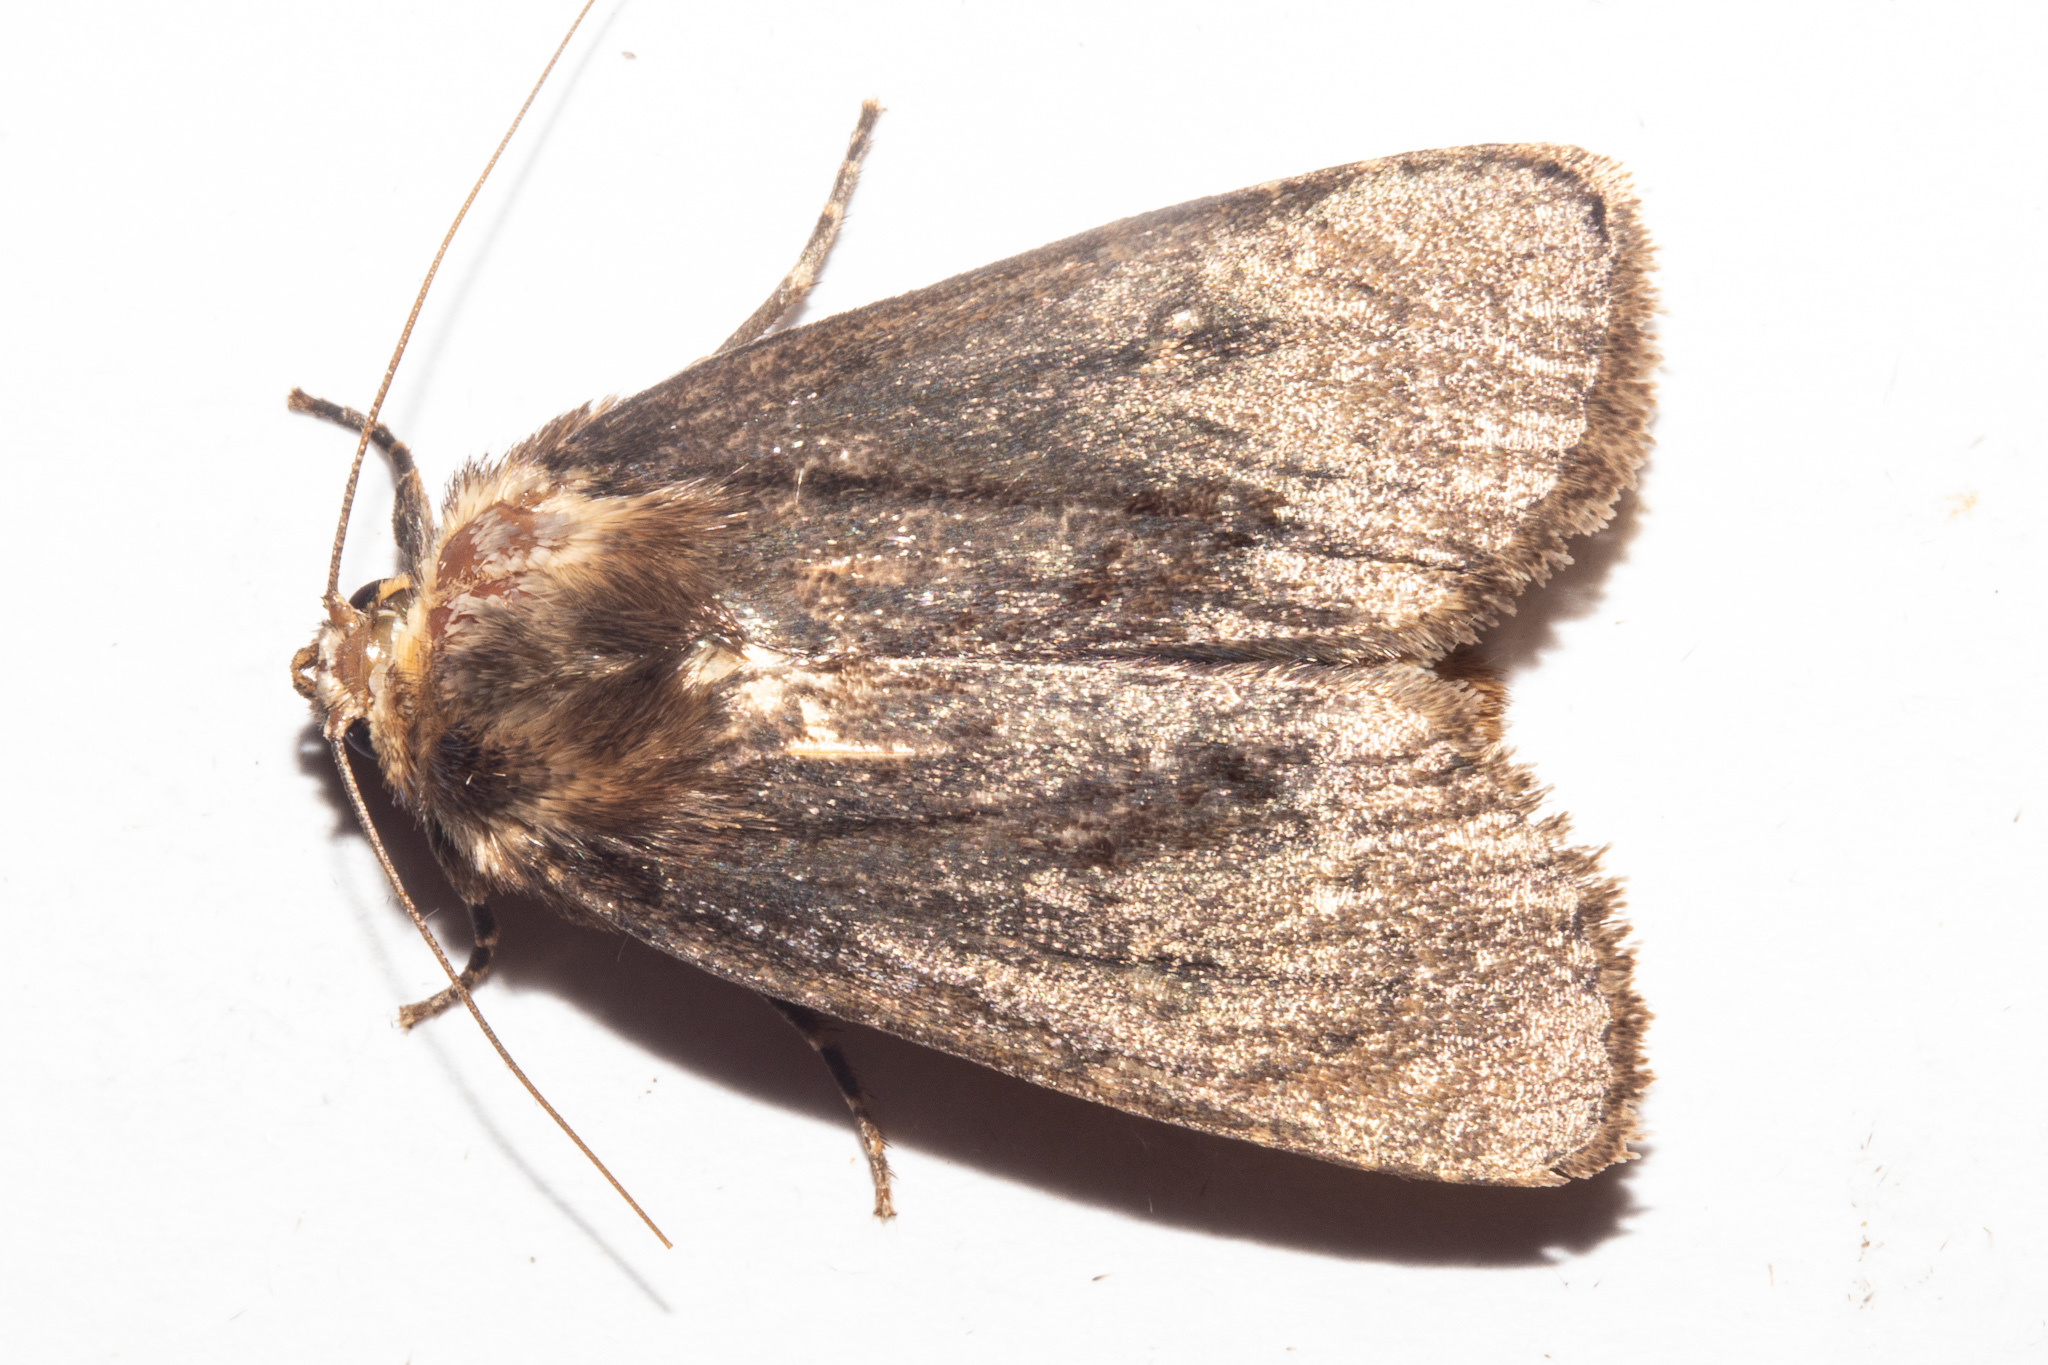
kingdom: Animalia
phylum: Arthropoda
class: Insecta
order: Lepidoptera
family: Noctuidae
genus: Bityla
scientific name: Bityla defigurata
